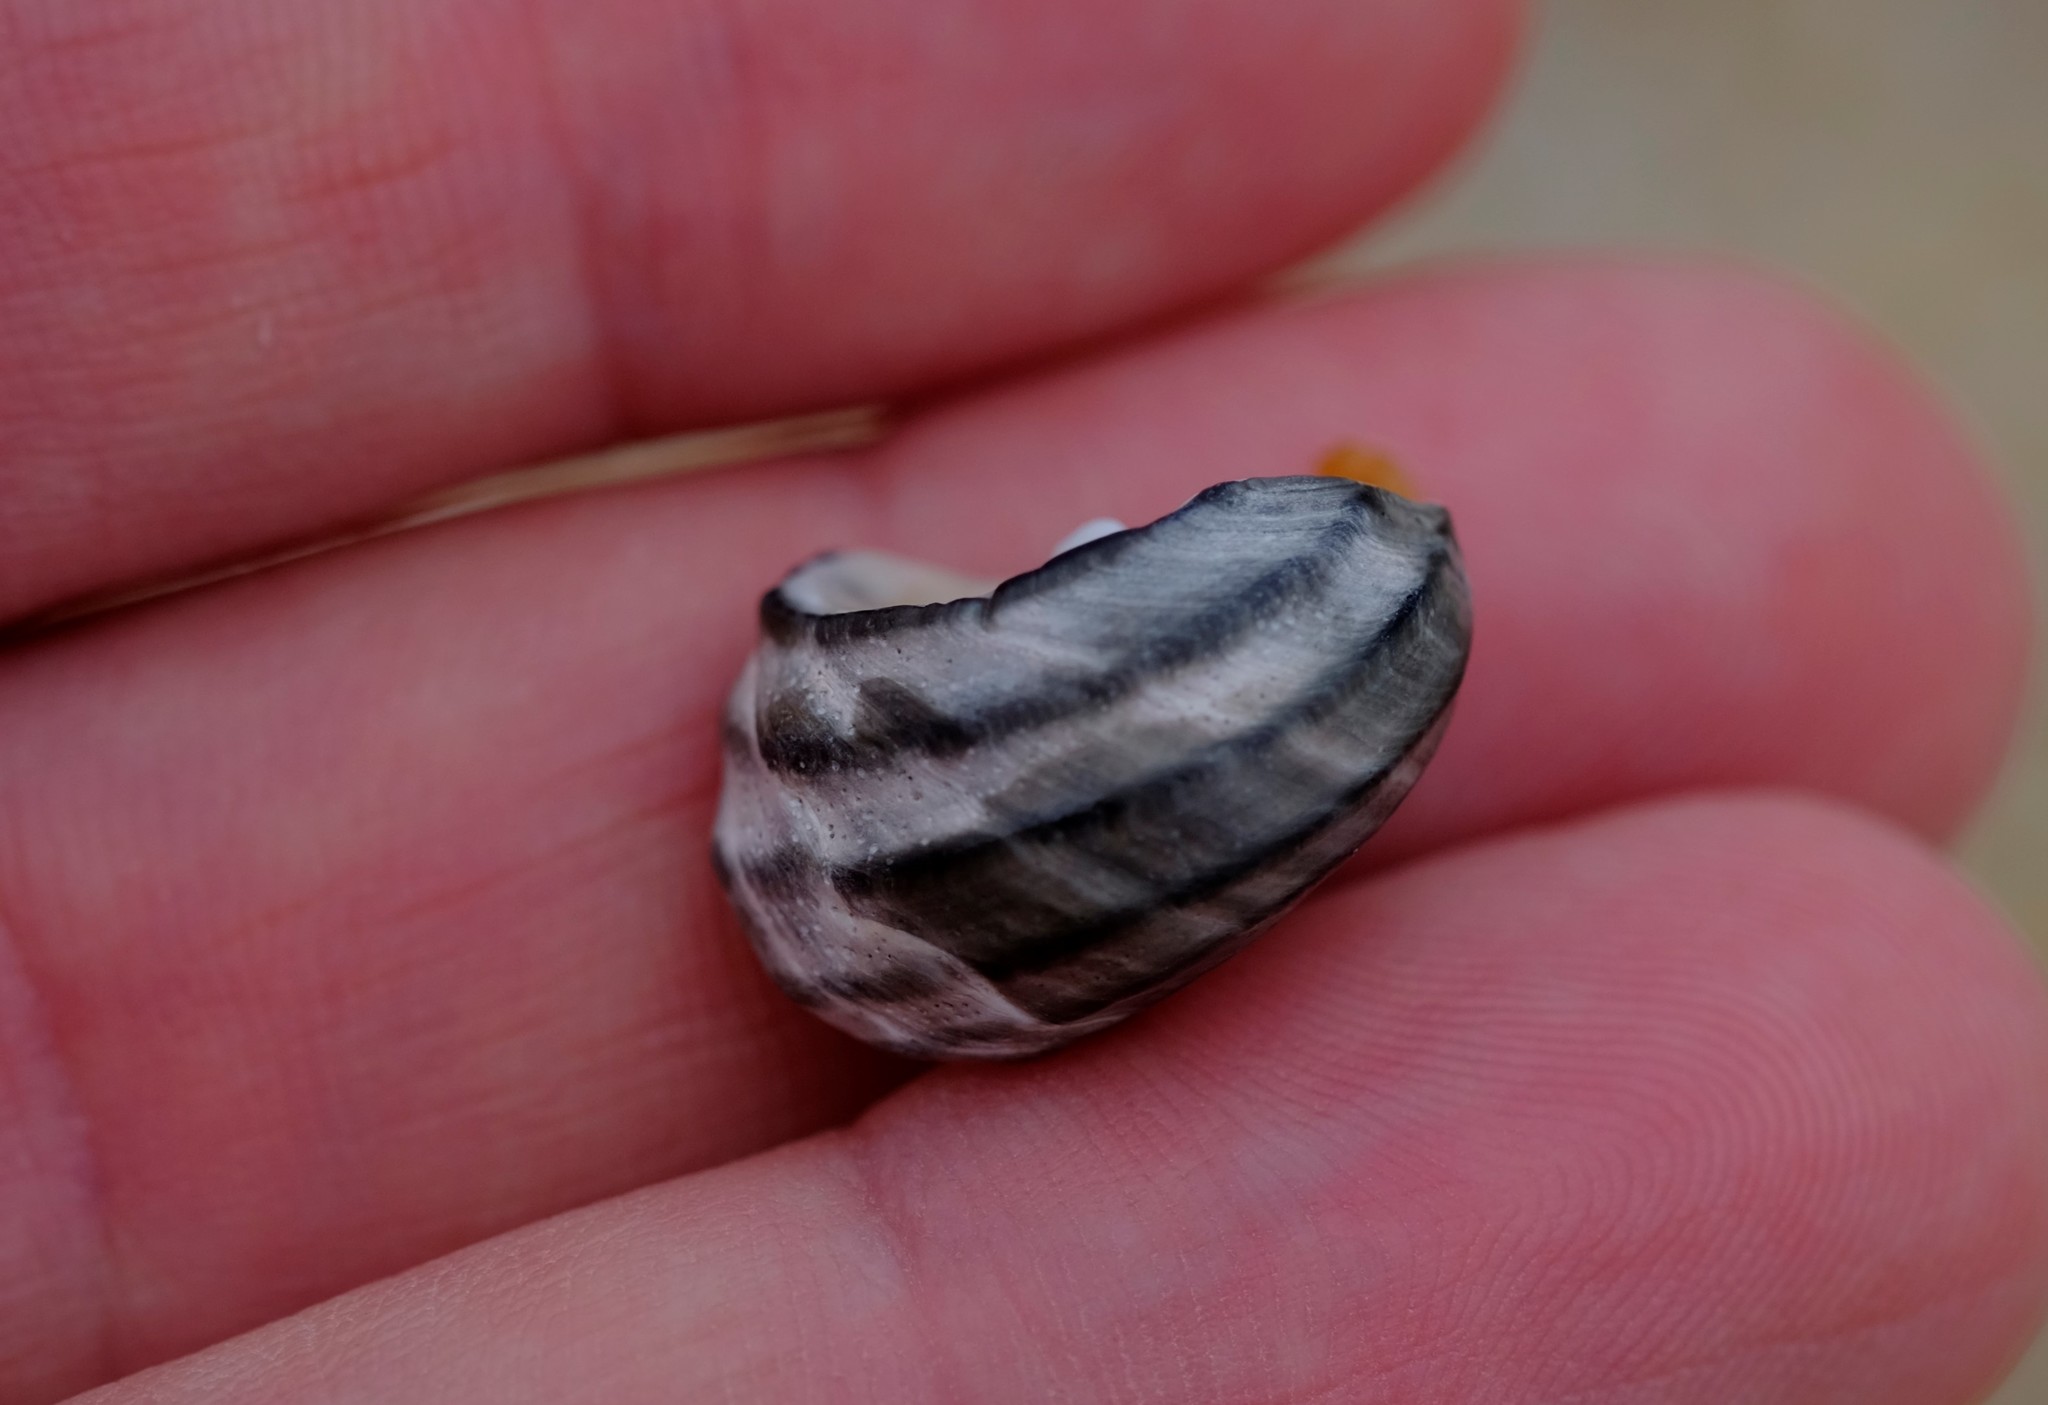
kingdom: Animalia
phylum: Mollusca
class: Gastropoda
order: Trochida
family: Trochidae
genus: Austrocochlea
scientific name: Austrocochlea constricta
